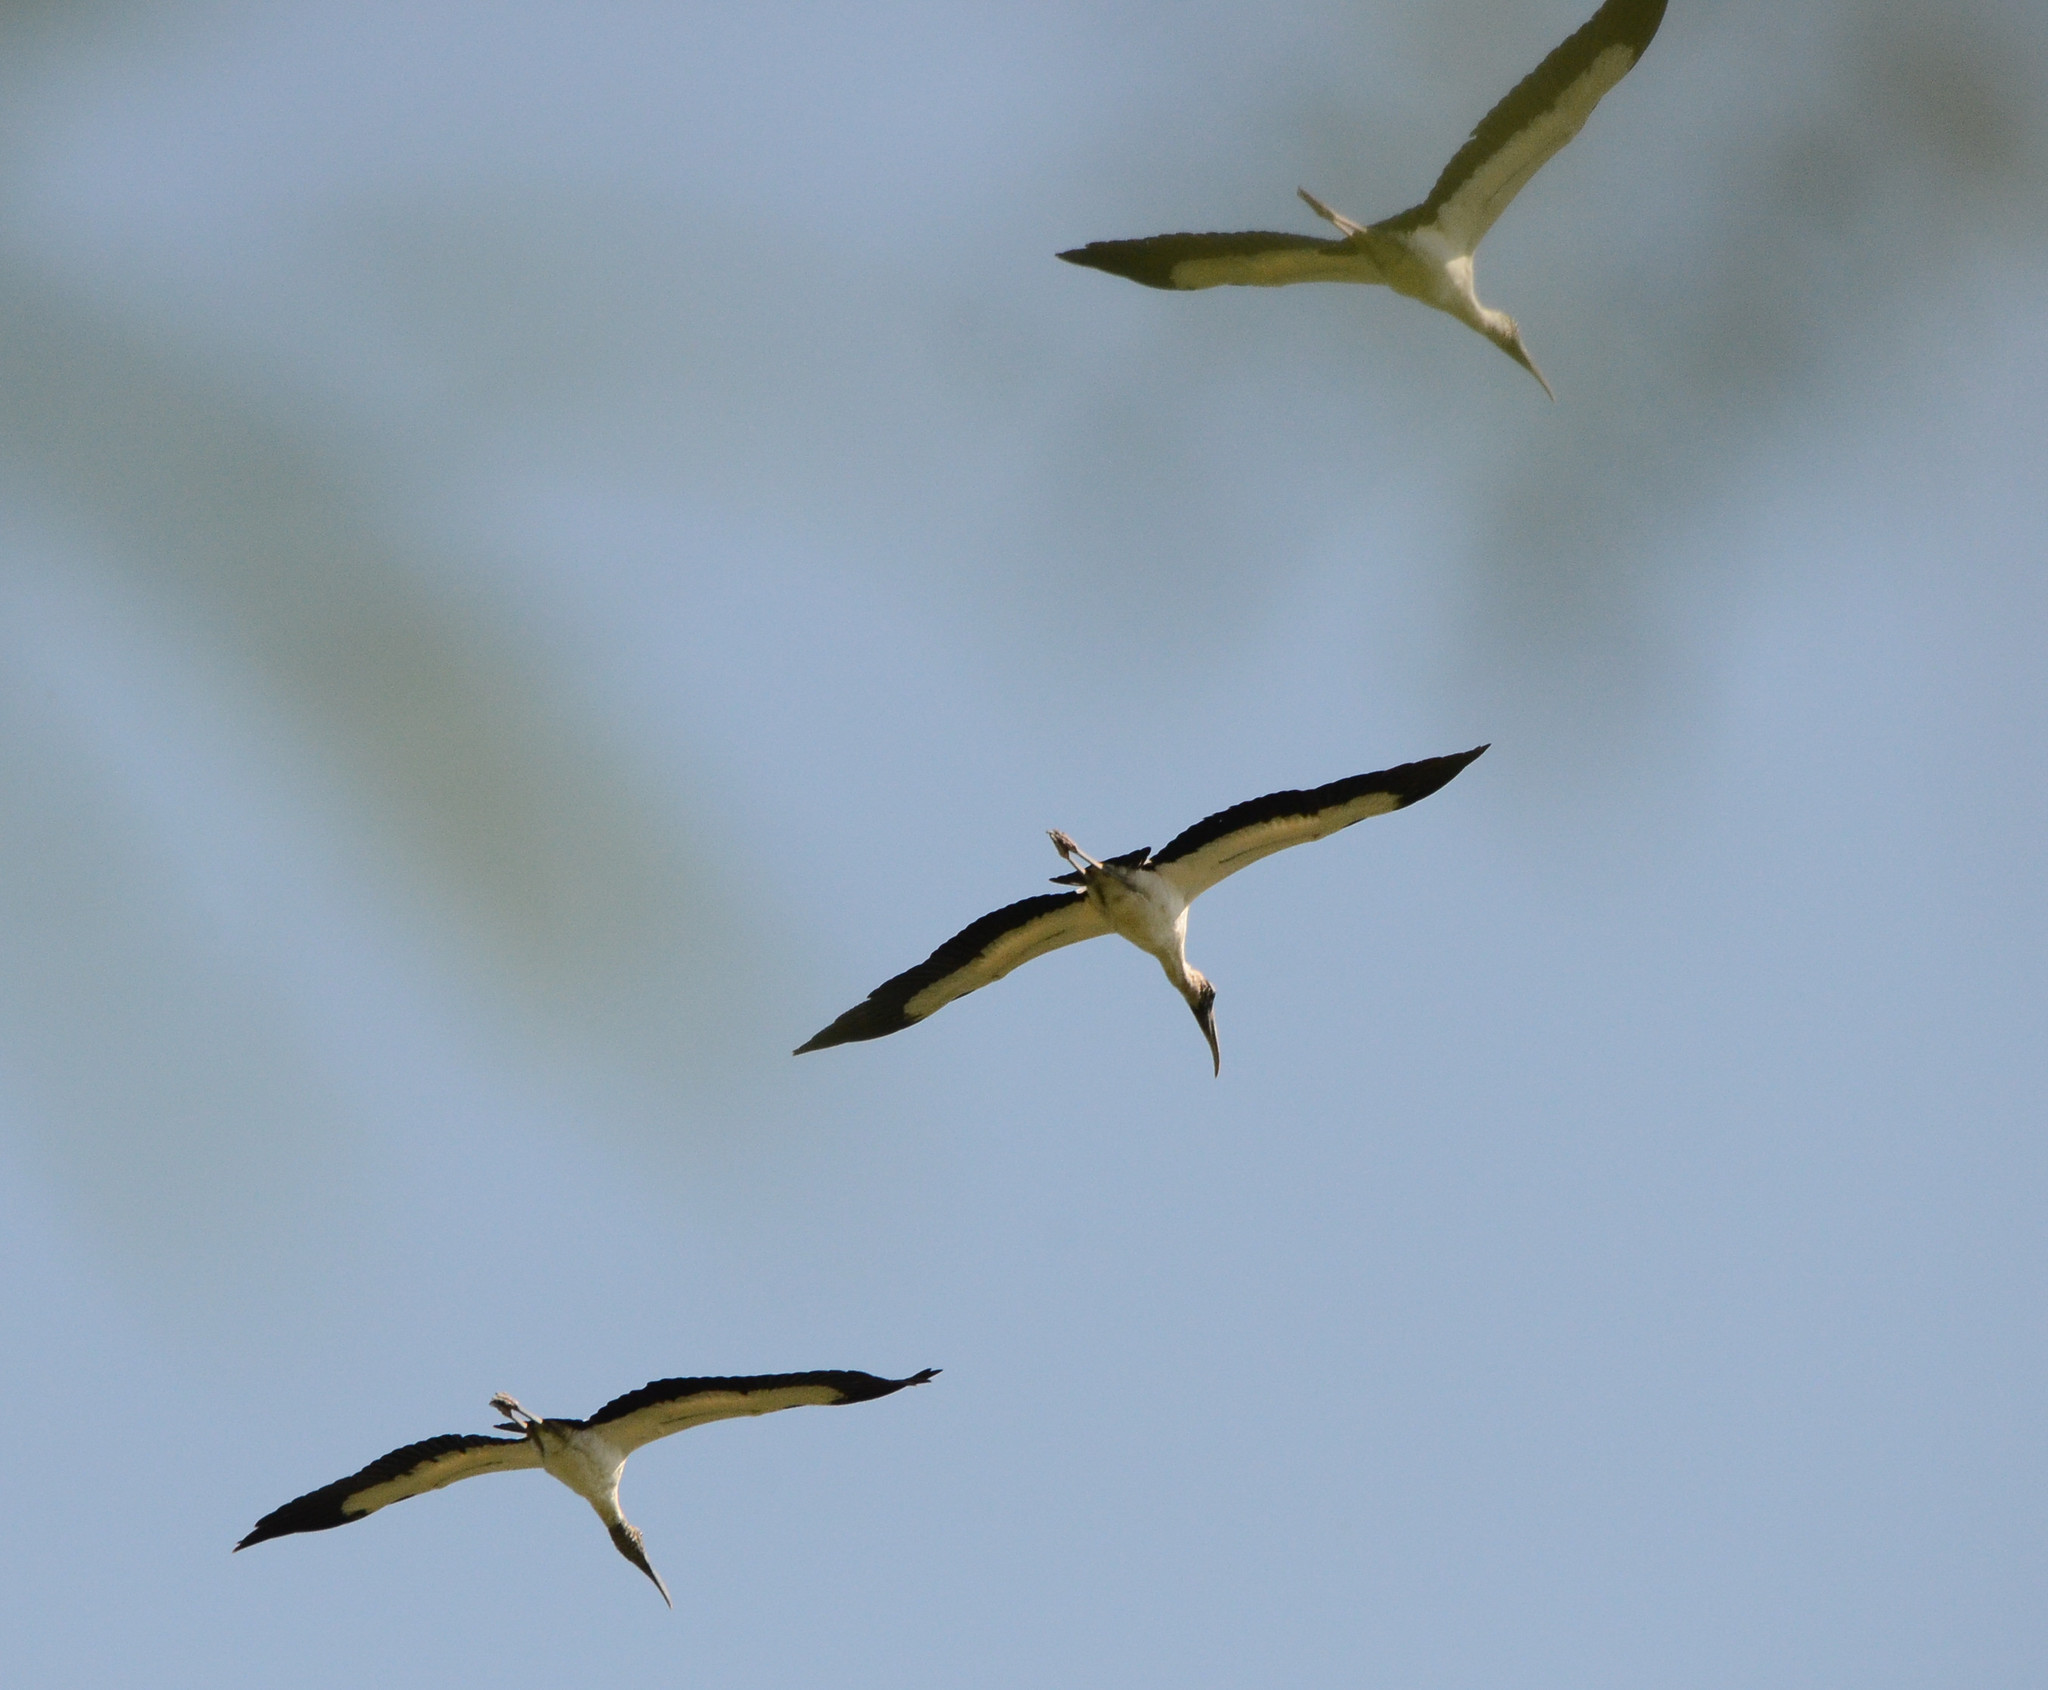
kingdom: Animalia
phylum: Chordata
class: Aves
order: Ciconiiformes
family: Ciconiidae
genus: Mycteria
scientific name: Mycteria americana
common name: Wood stork
